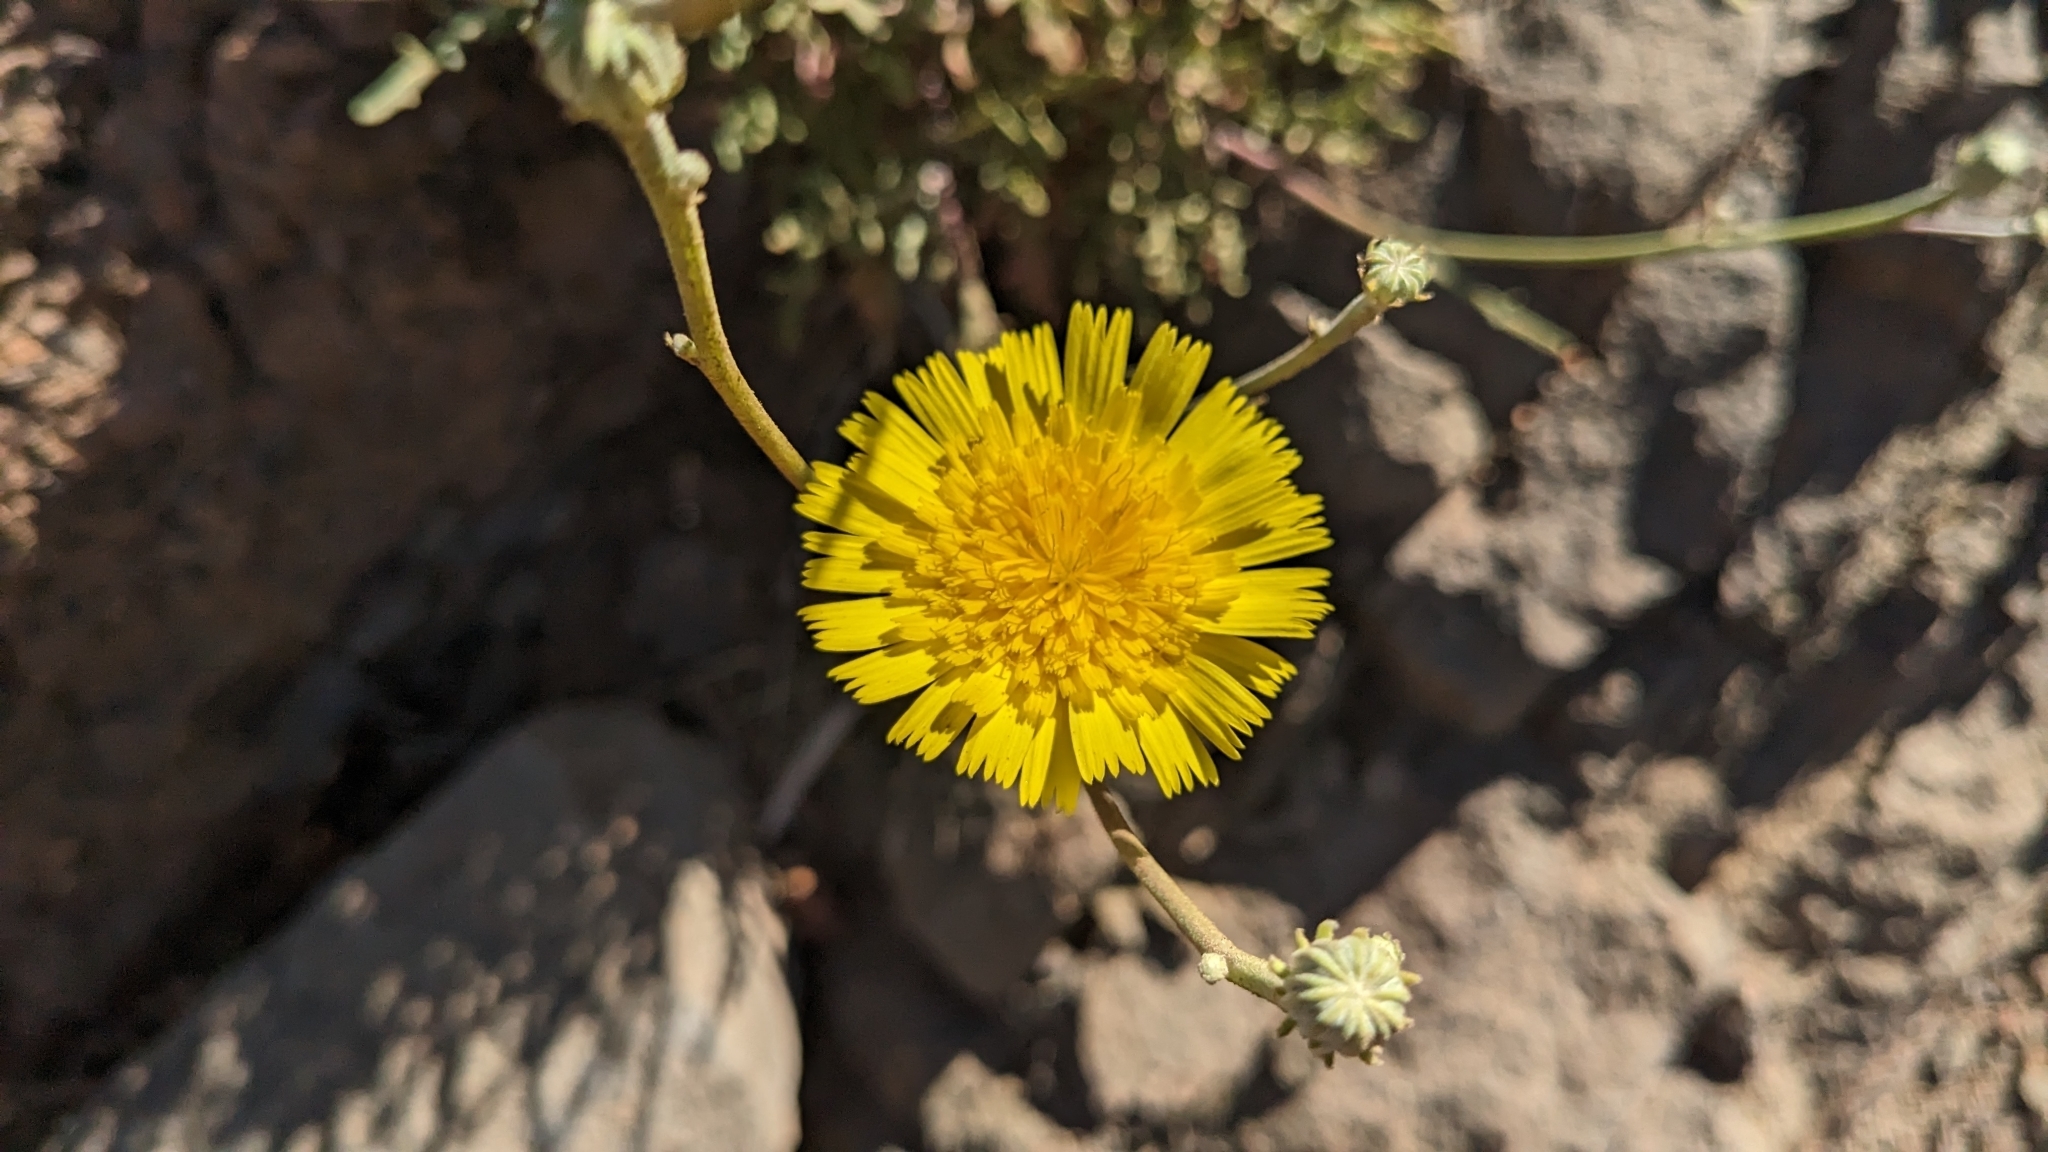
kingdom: Plantae
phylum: Tracheophyta
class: Magnoliopsida
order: Asterales
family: Asteraceae
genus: Tolpis
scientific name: Tolpis succulenta
